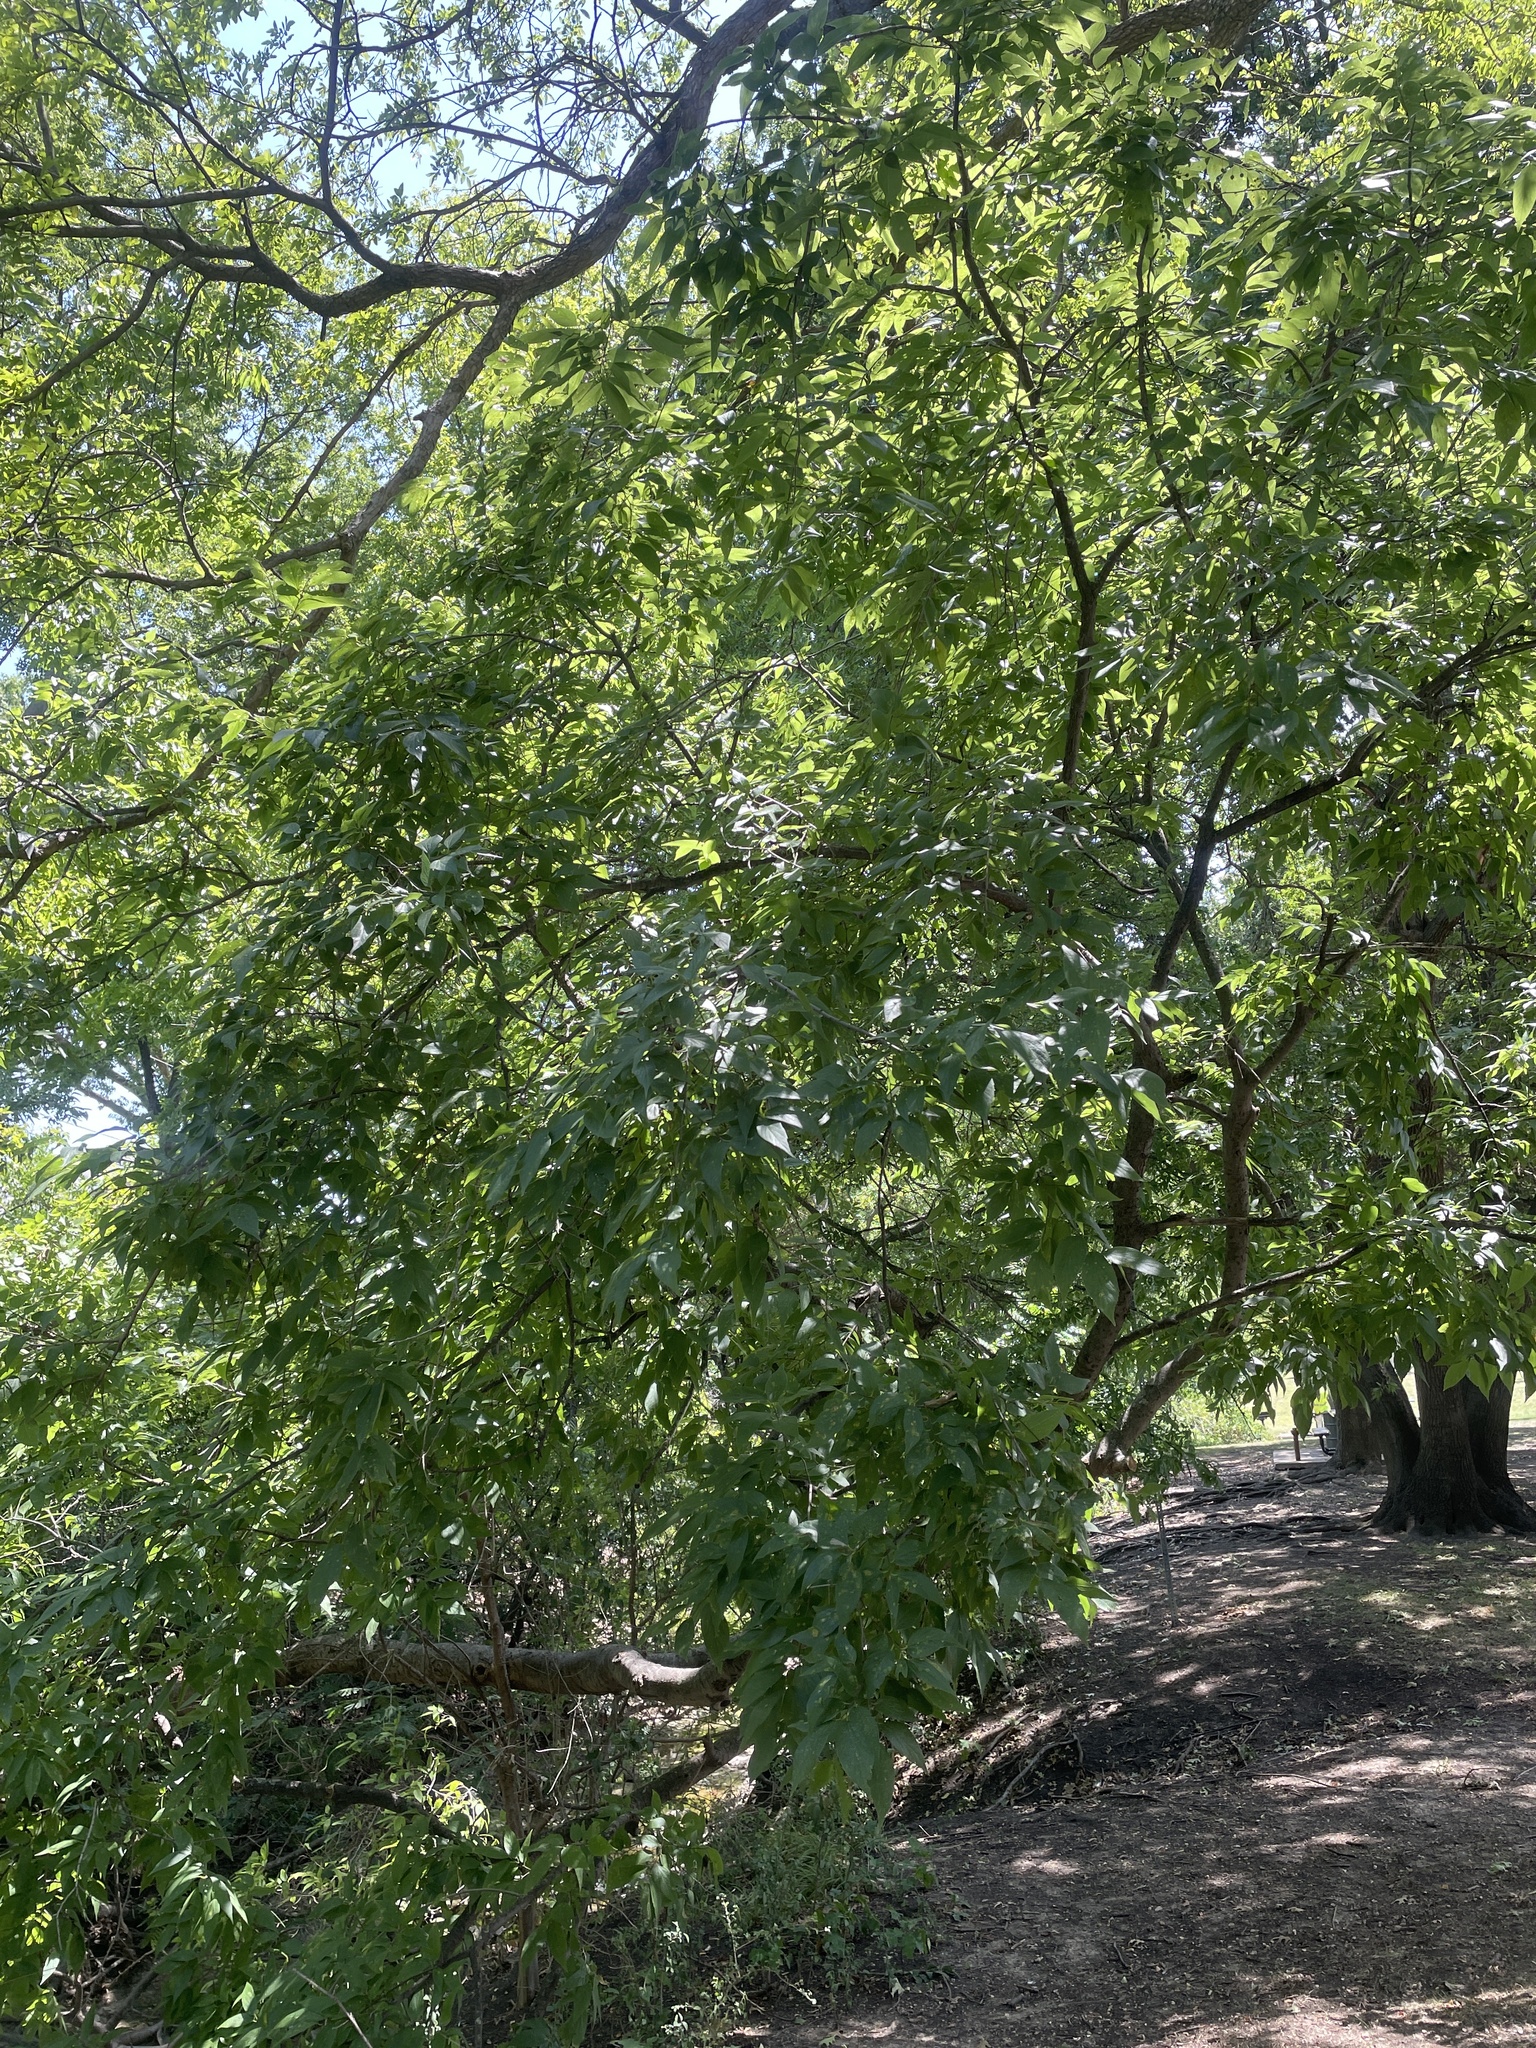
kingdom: Plantae
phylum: Tracheophyta
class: Magnoliopsida
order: Rosales
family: Cannabaceae
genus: Celtis
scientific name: Celtis laevigata
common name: Sugarberry
